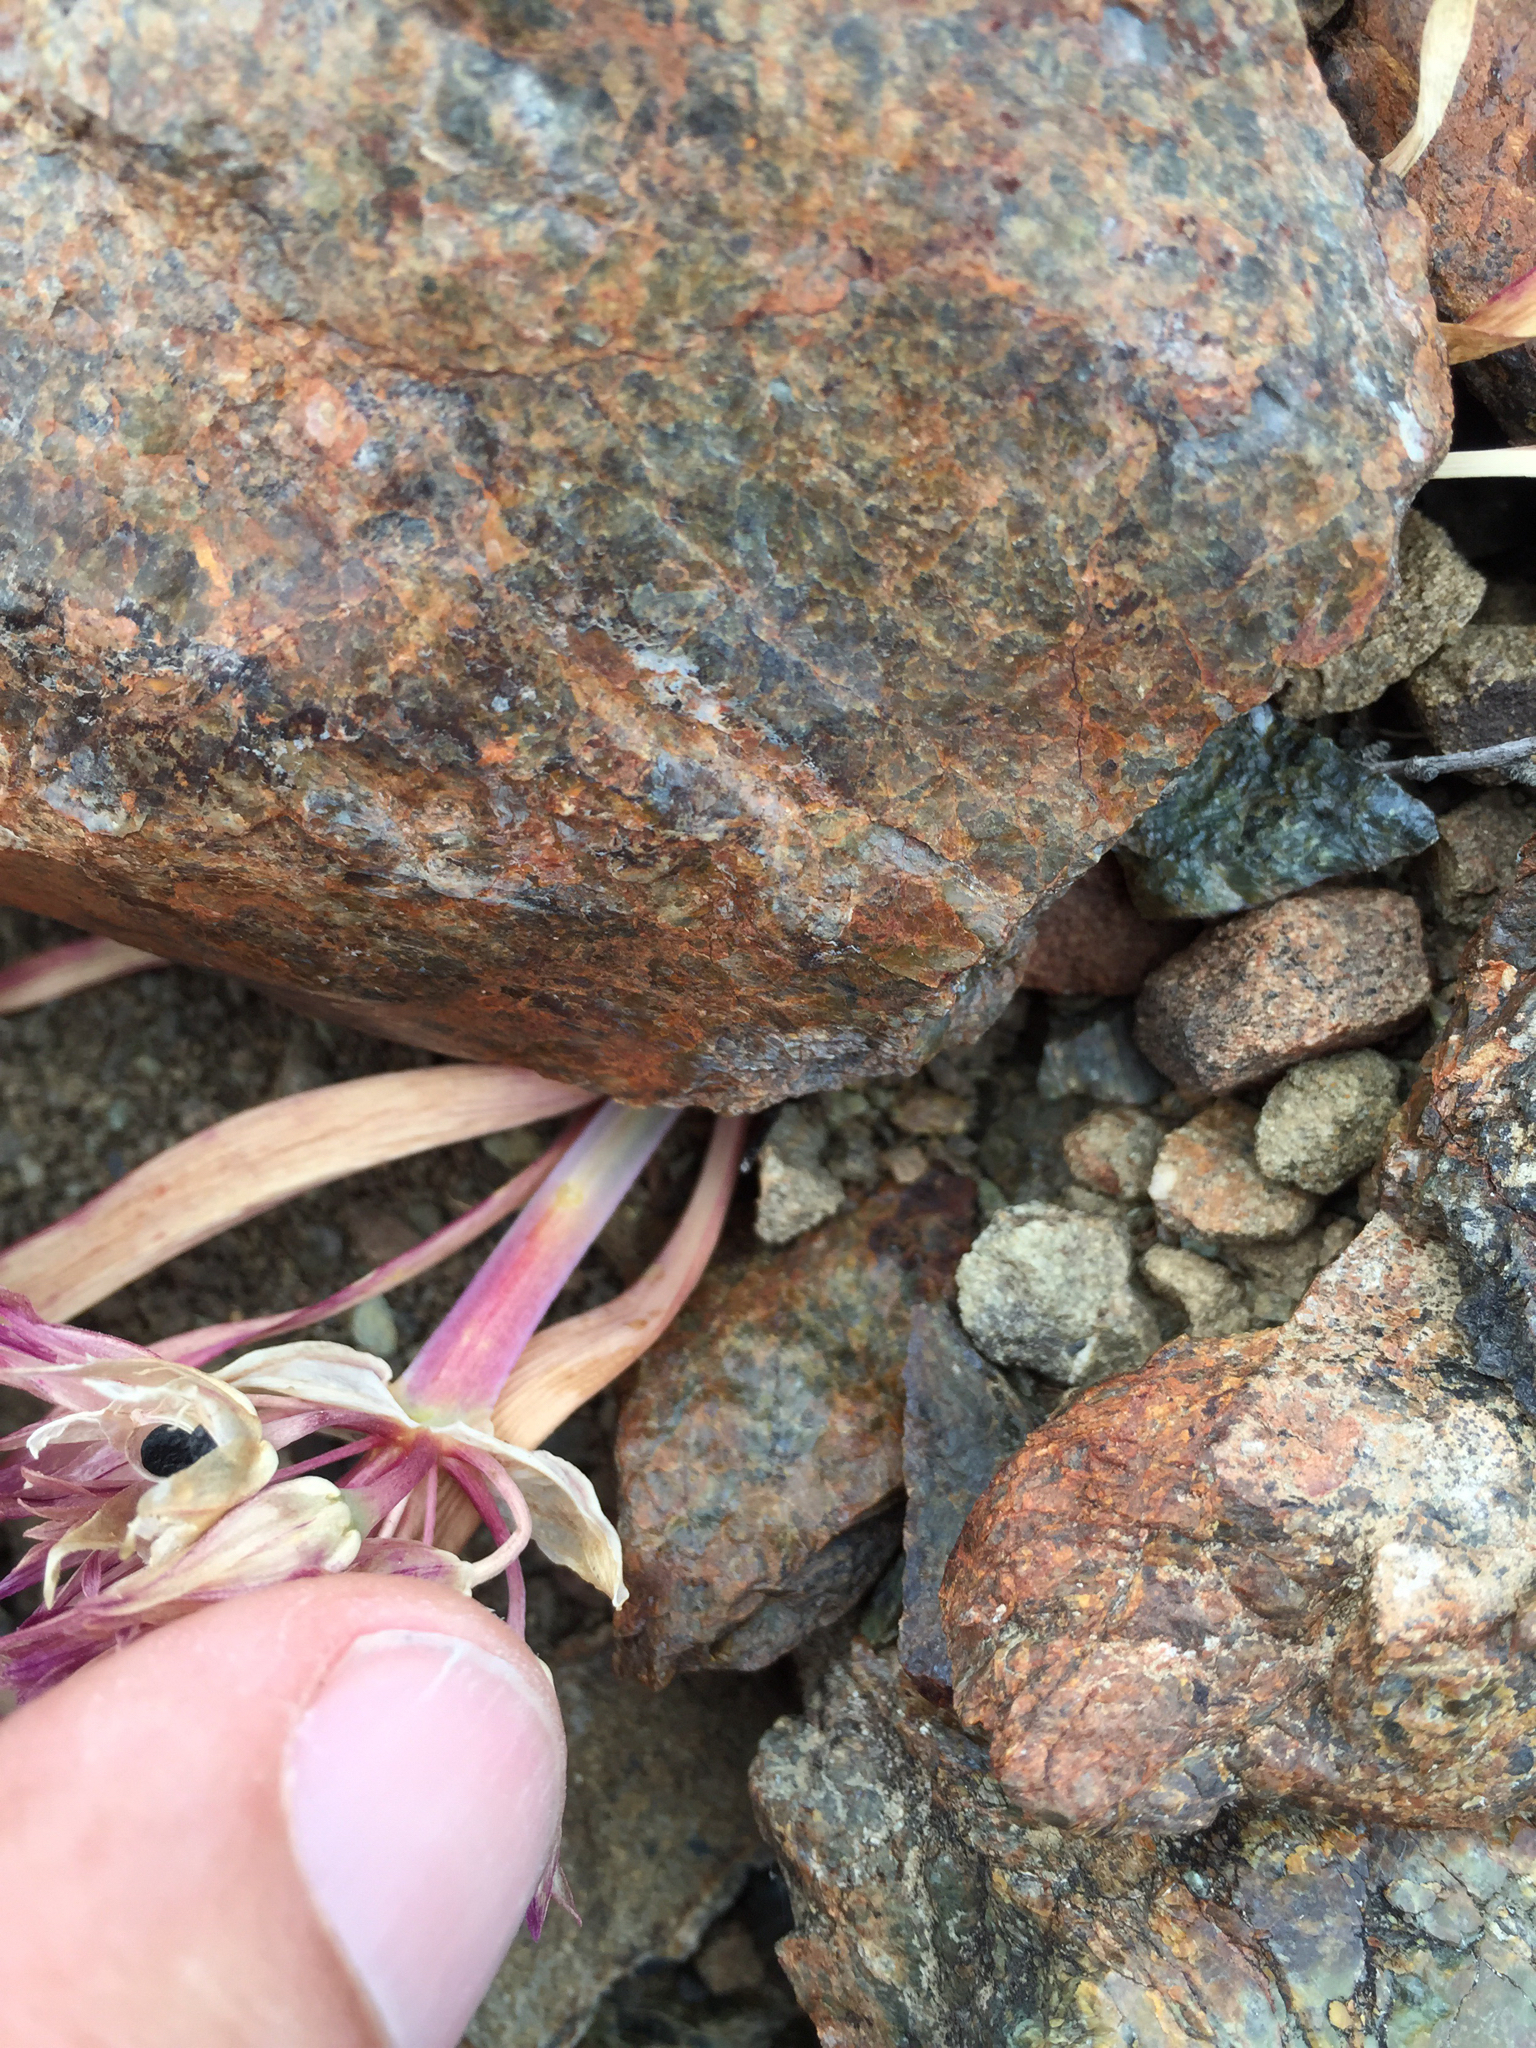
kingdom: Plantae
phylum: Tracheophyta
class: Liliopsida
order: Asparagales
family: Amaryllidaceae
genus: Allium
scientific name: Allium falcifolium
